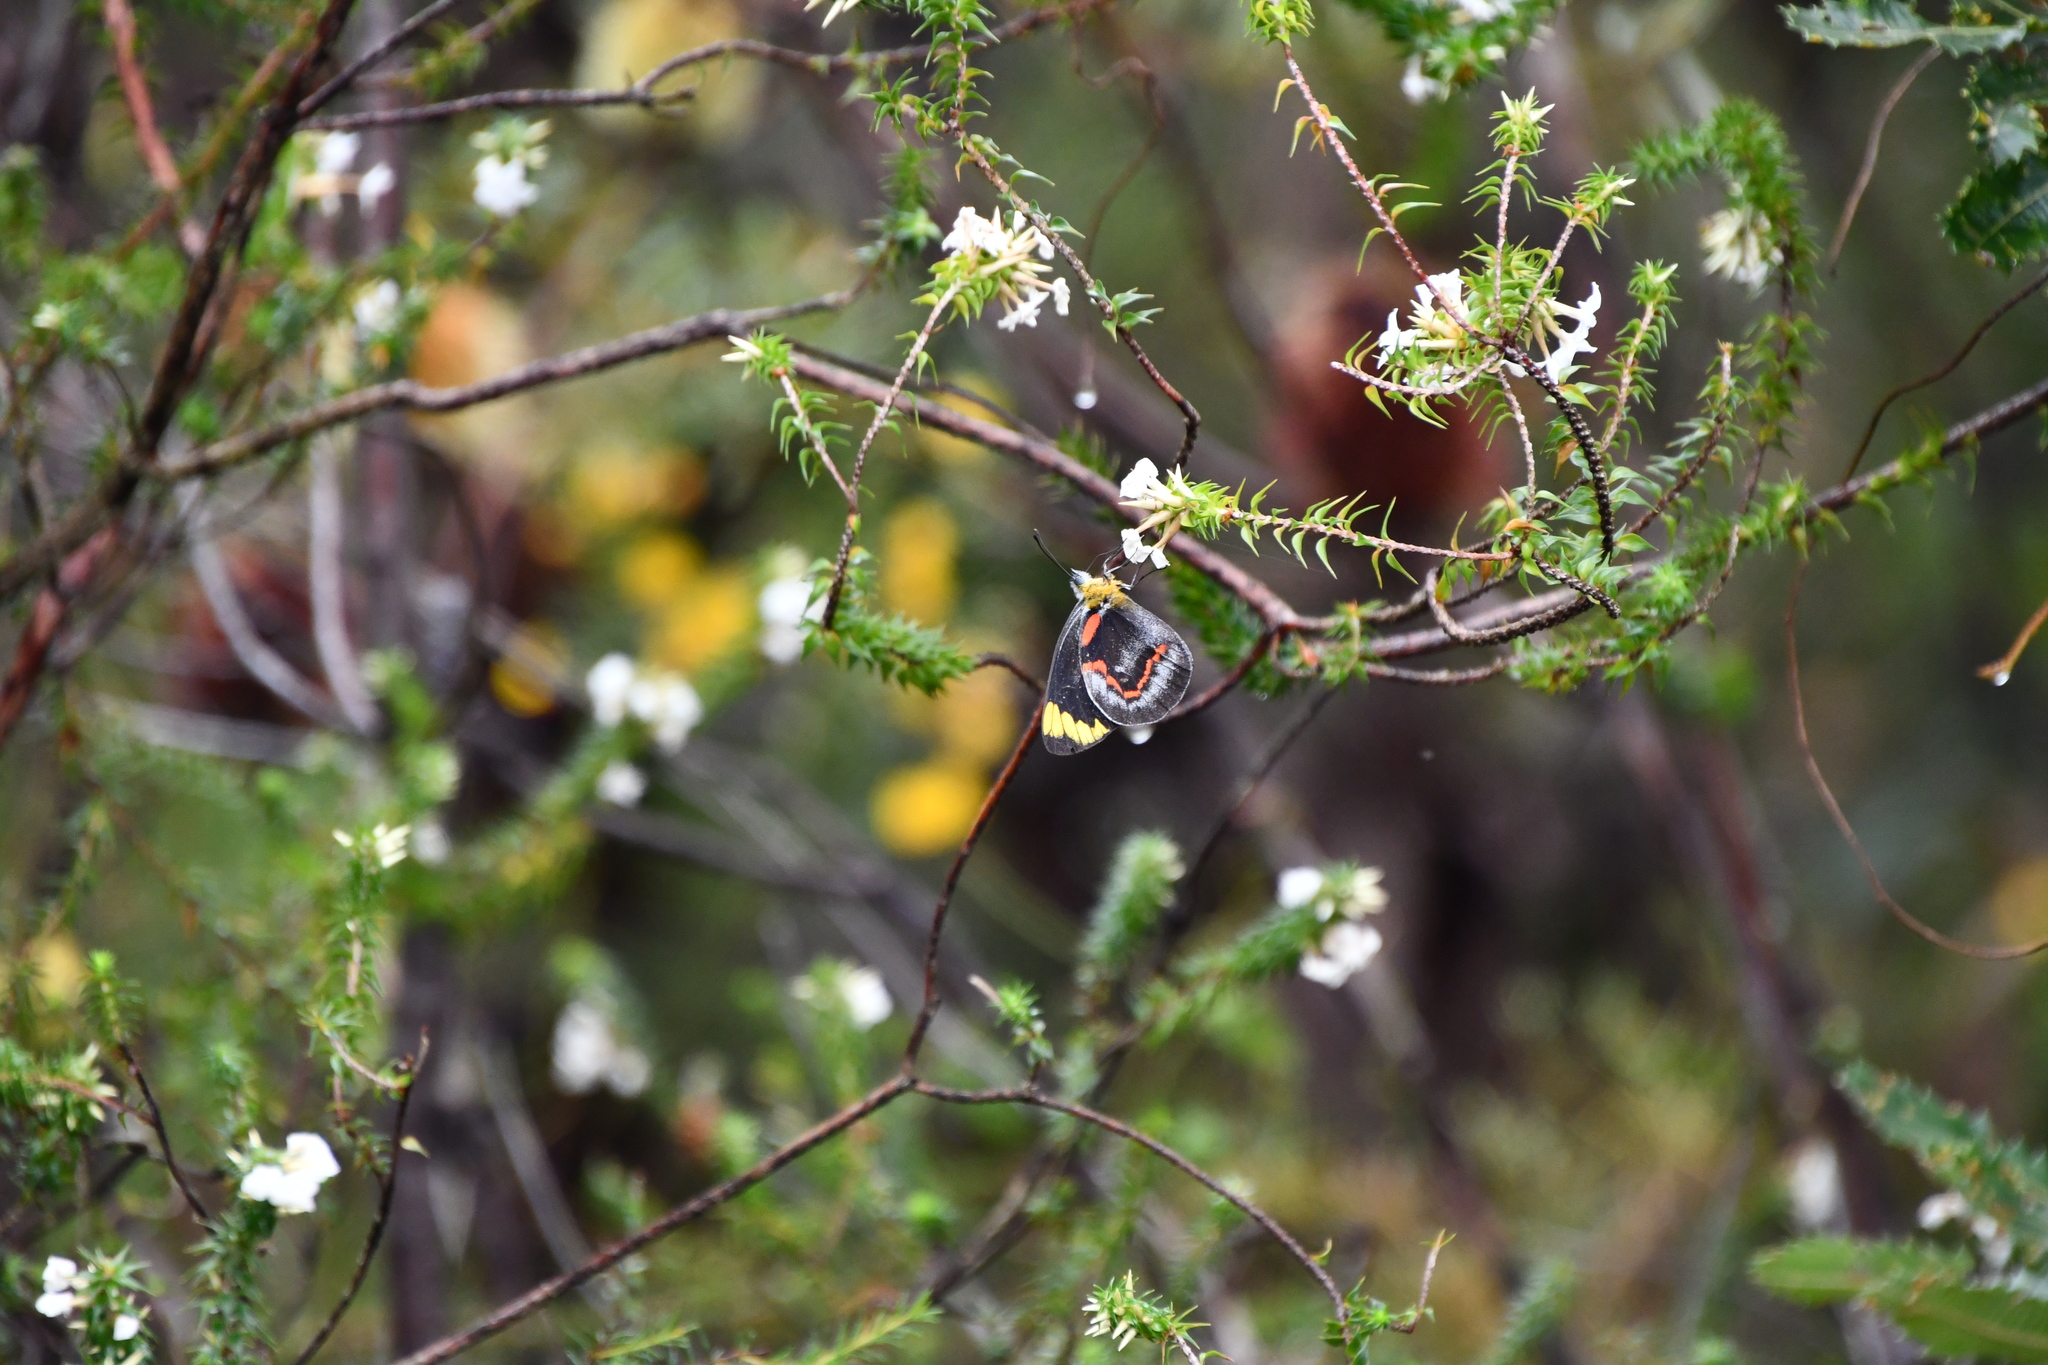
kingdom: Animalia
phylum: Arthropoda
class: Insecta
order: Lepidoptera
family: Pieridae
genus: Delias
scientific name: Delias nigrina
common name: Black jezebel
